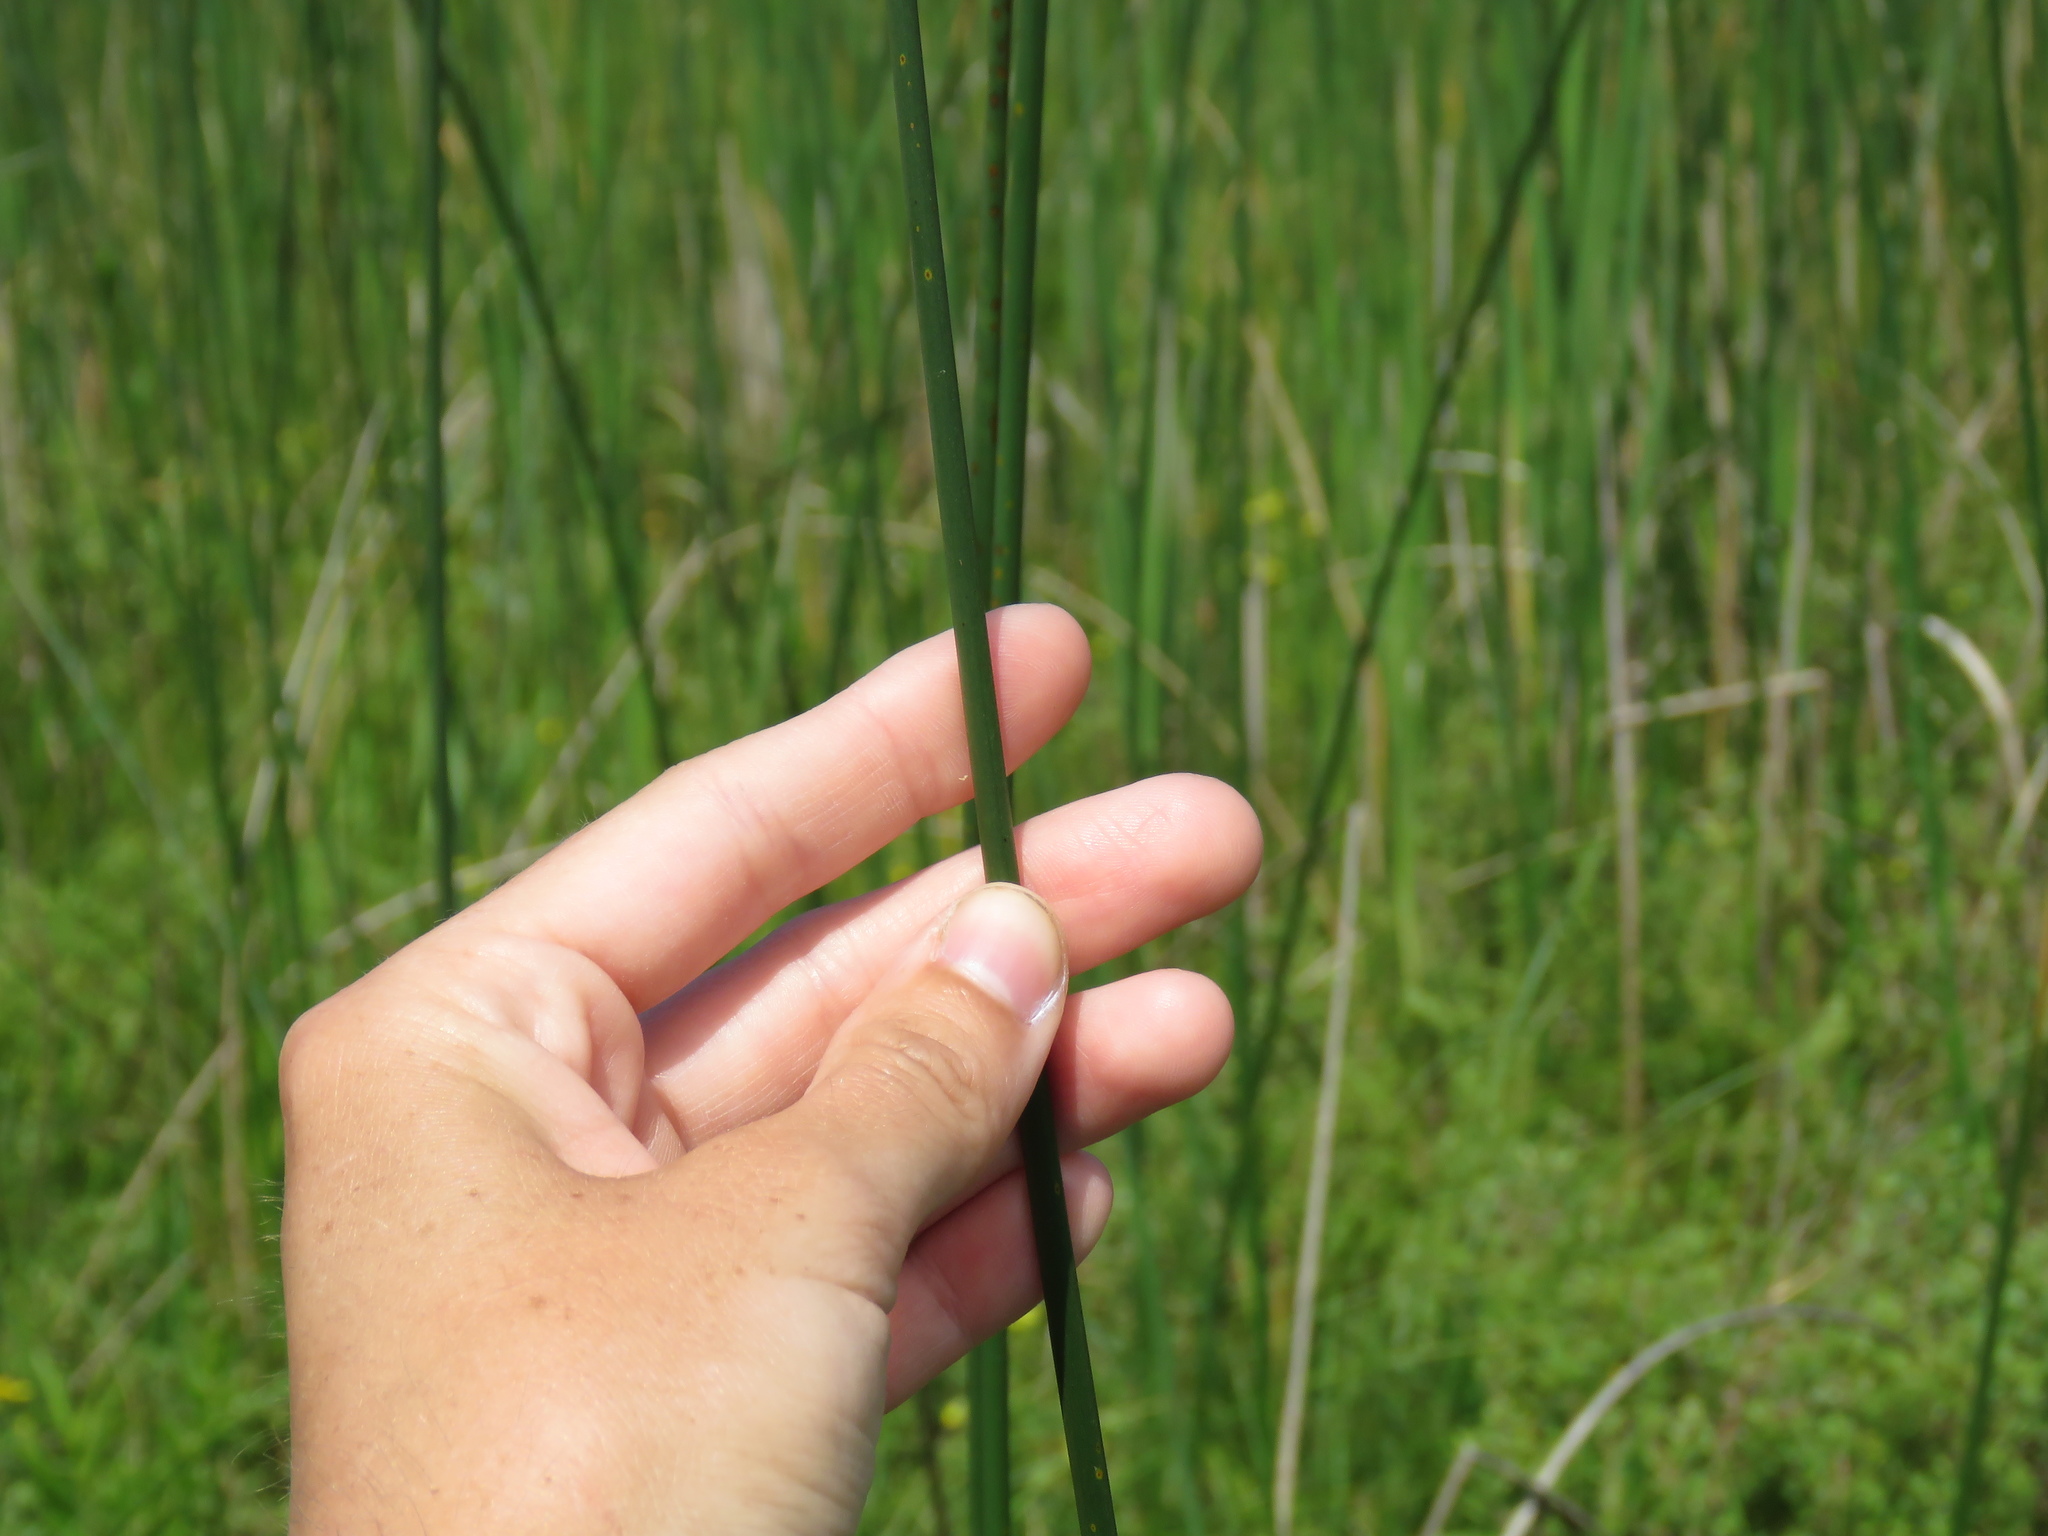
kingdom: Plantae
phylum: Tracheophyta
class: Liliopsida
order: Poales
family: Cyperaceae
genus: Schoenoplectus
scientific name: Schoenoplectus tabernaemontani
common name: Grey club-rush
